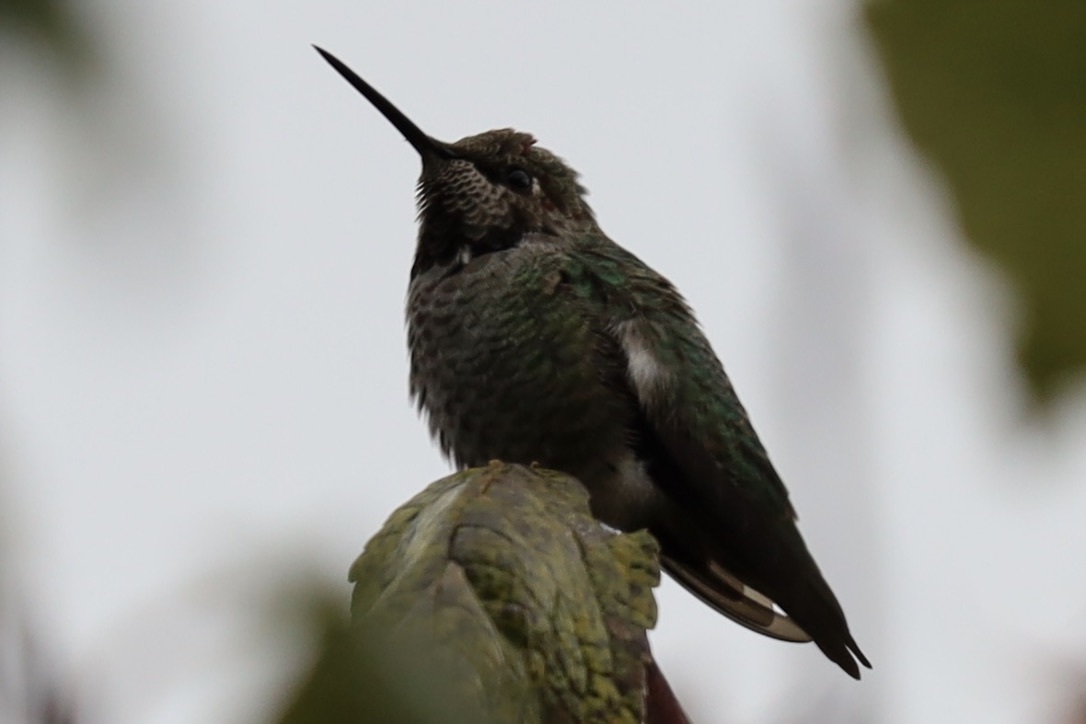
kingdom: Animalia
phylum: Chordata
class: Aves
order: Apodiformes
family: Trochilidae
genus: Calypte
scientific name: Calypte anna
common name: Anna's hummingbird
